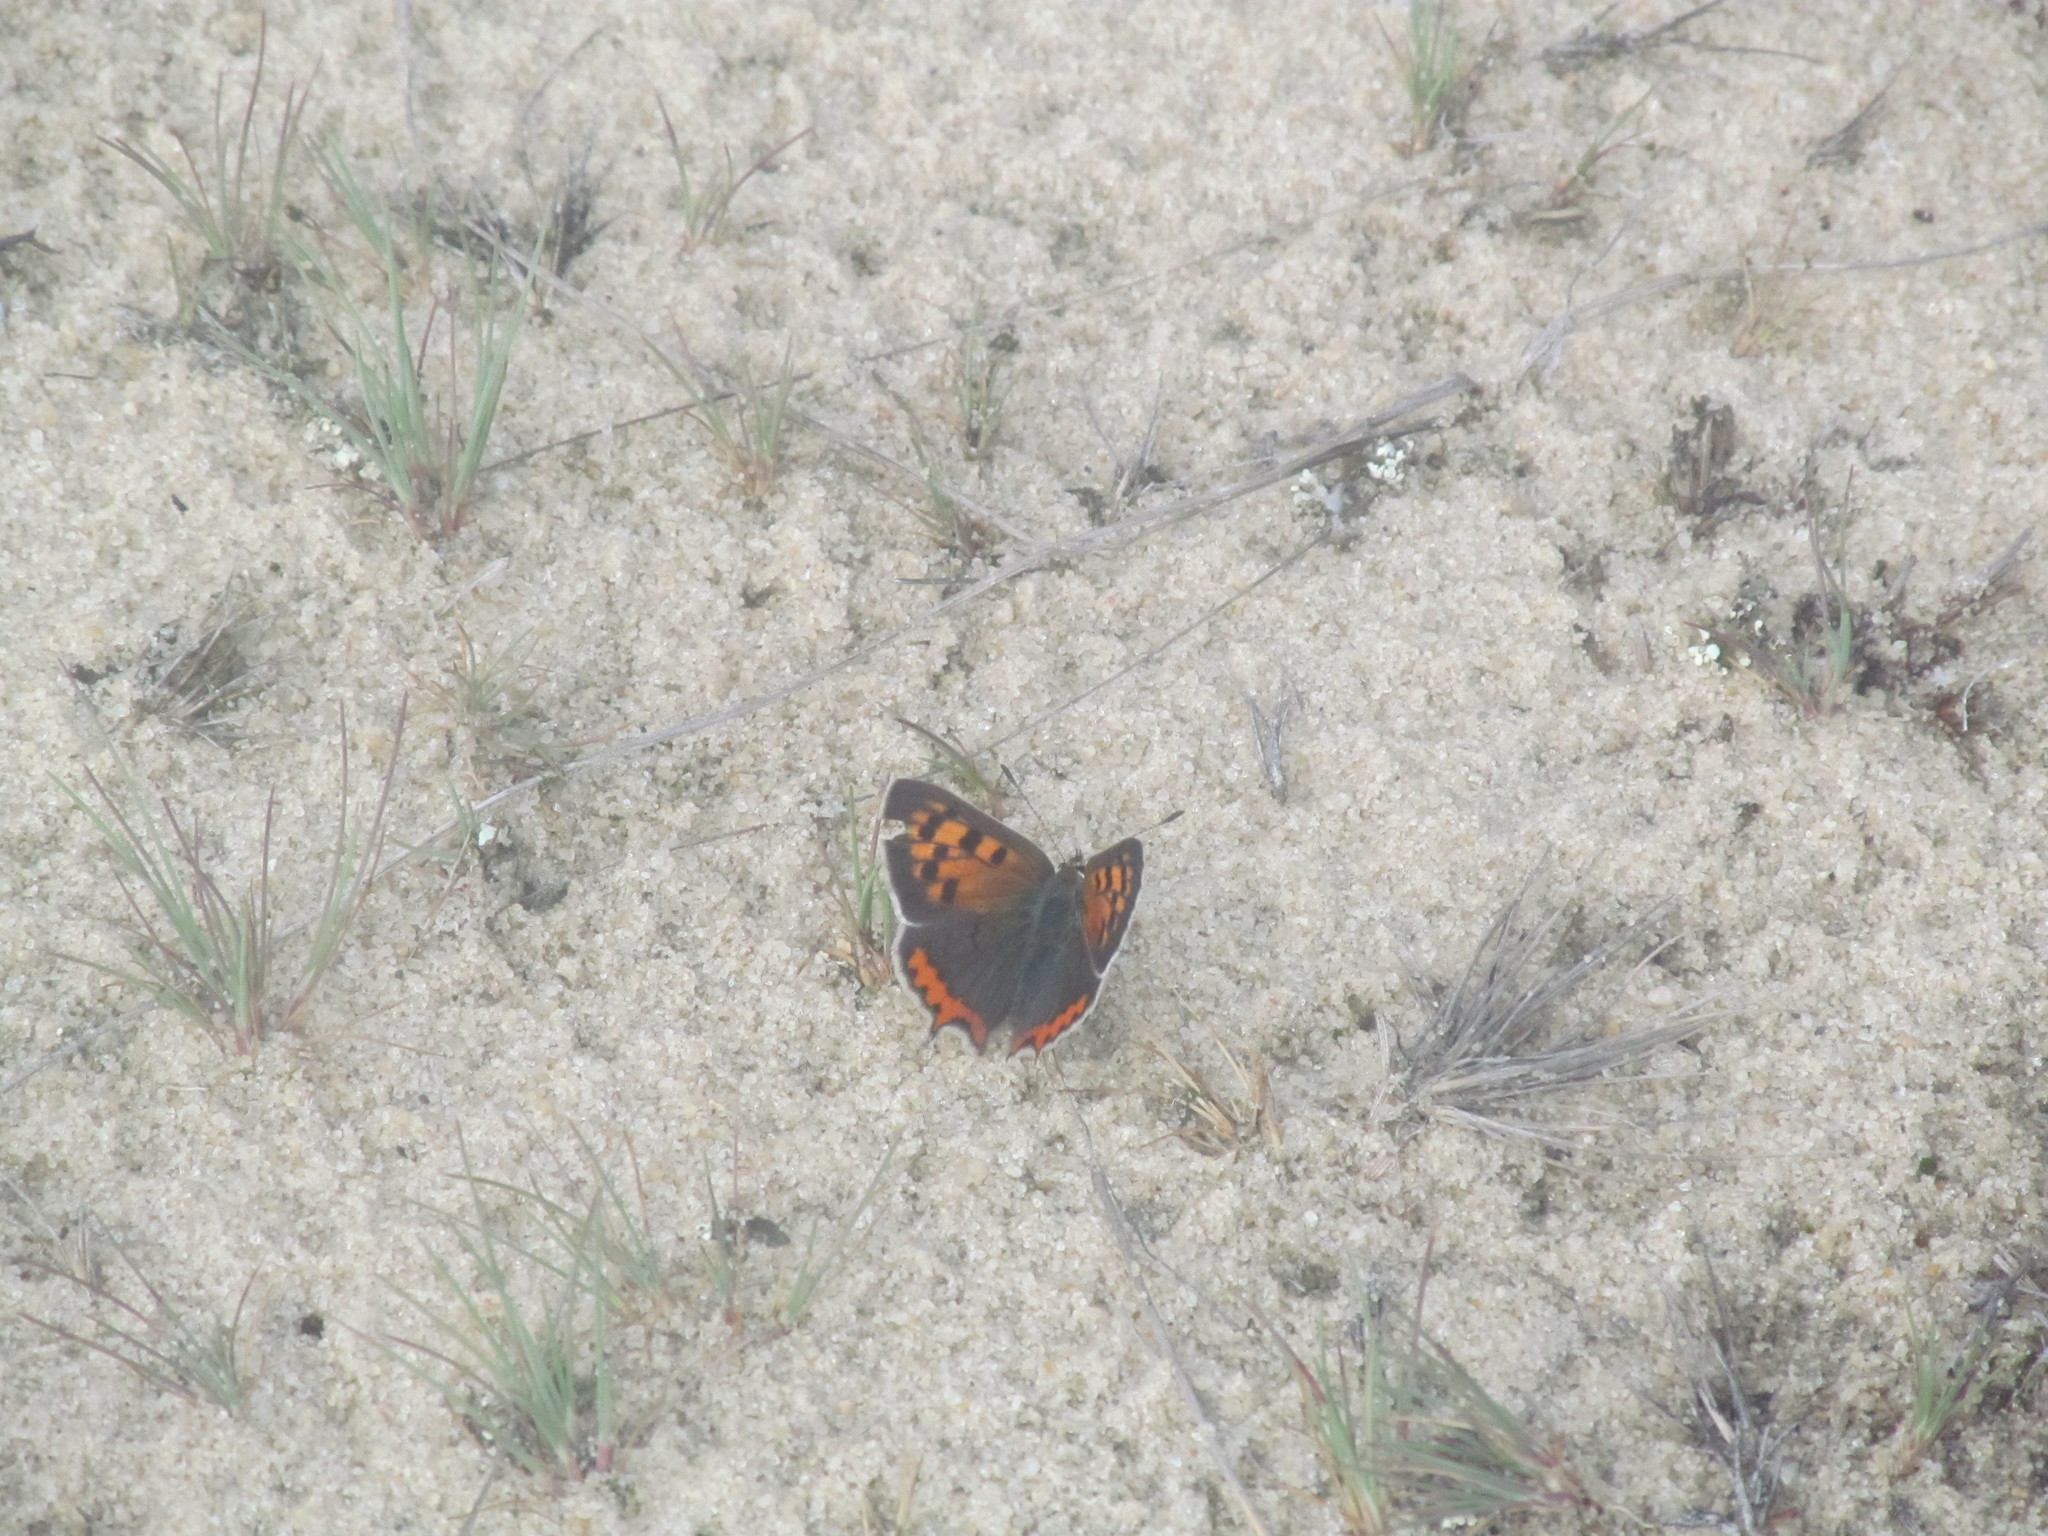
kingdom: Animalia
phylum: Arthropoda
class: Insecta
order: Lepidoptera
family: Lycaenidae
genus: Lycaena
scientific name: Lycaena phlaeas
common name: Small copper
